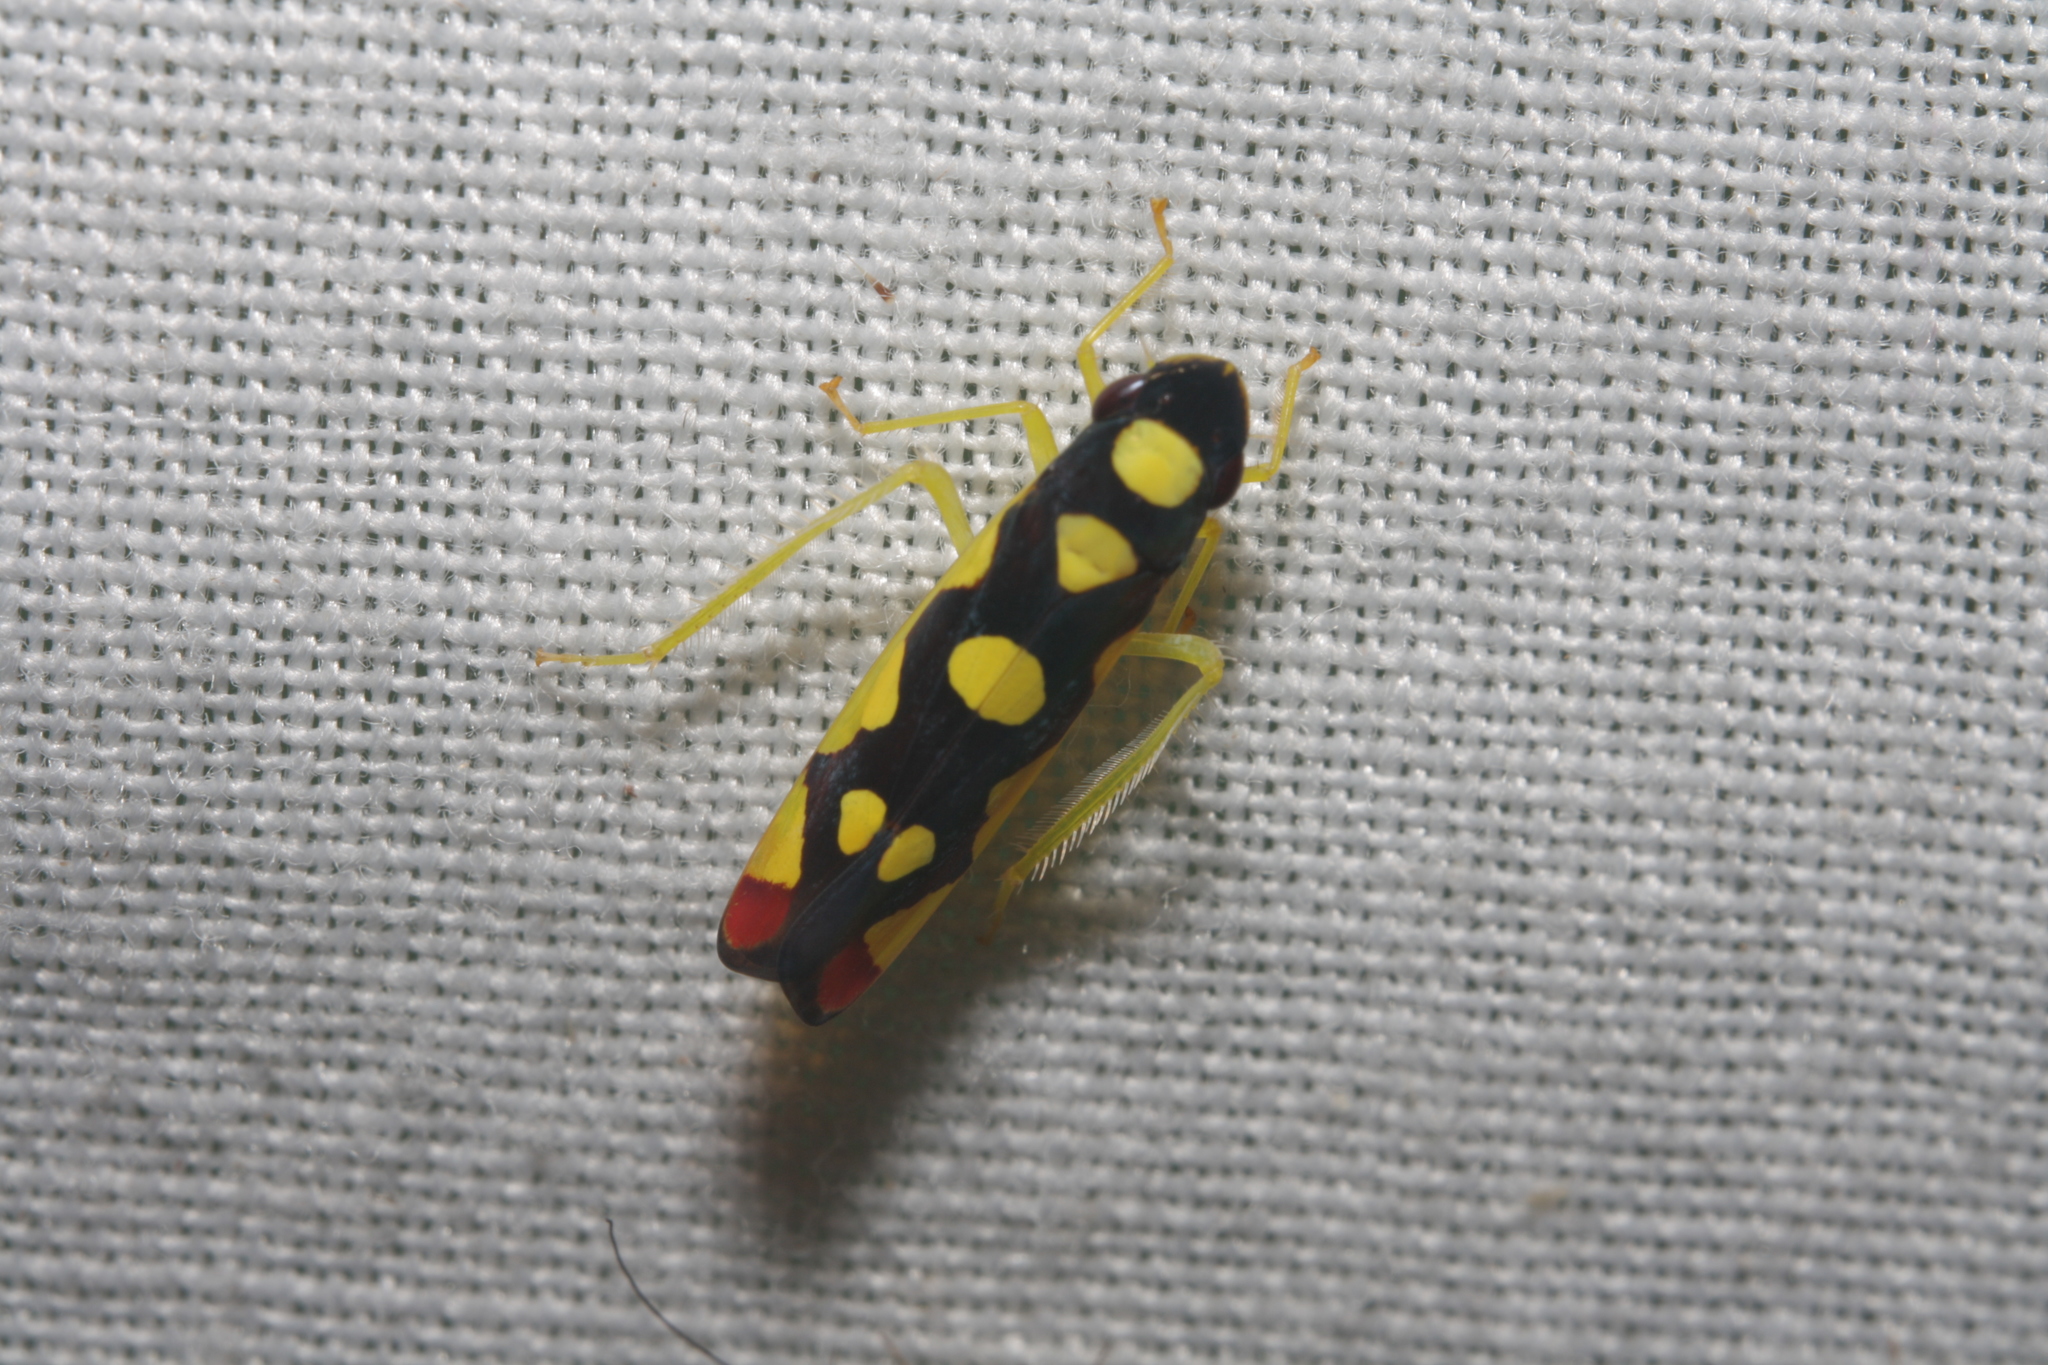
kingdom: Animalia
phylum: Arthropoda
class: Insecta
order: Hemiptera
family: Cicadellidae
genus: Baleja
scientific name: Baleja flavoguttata
